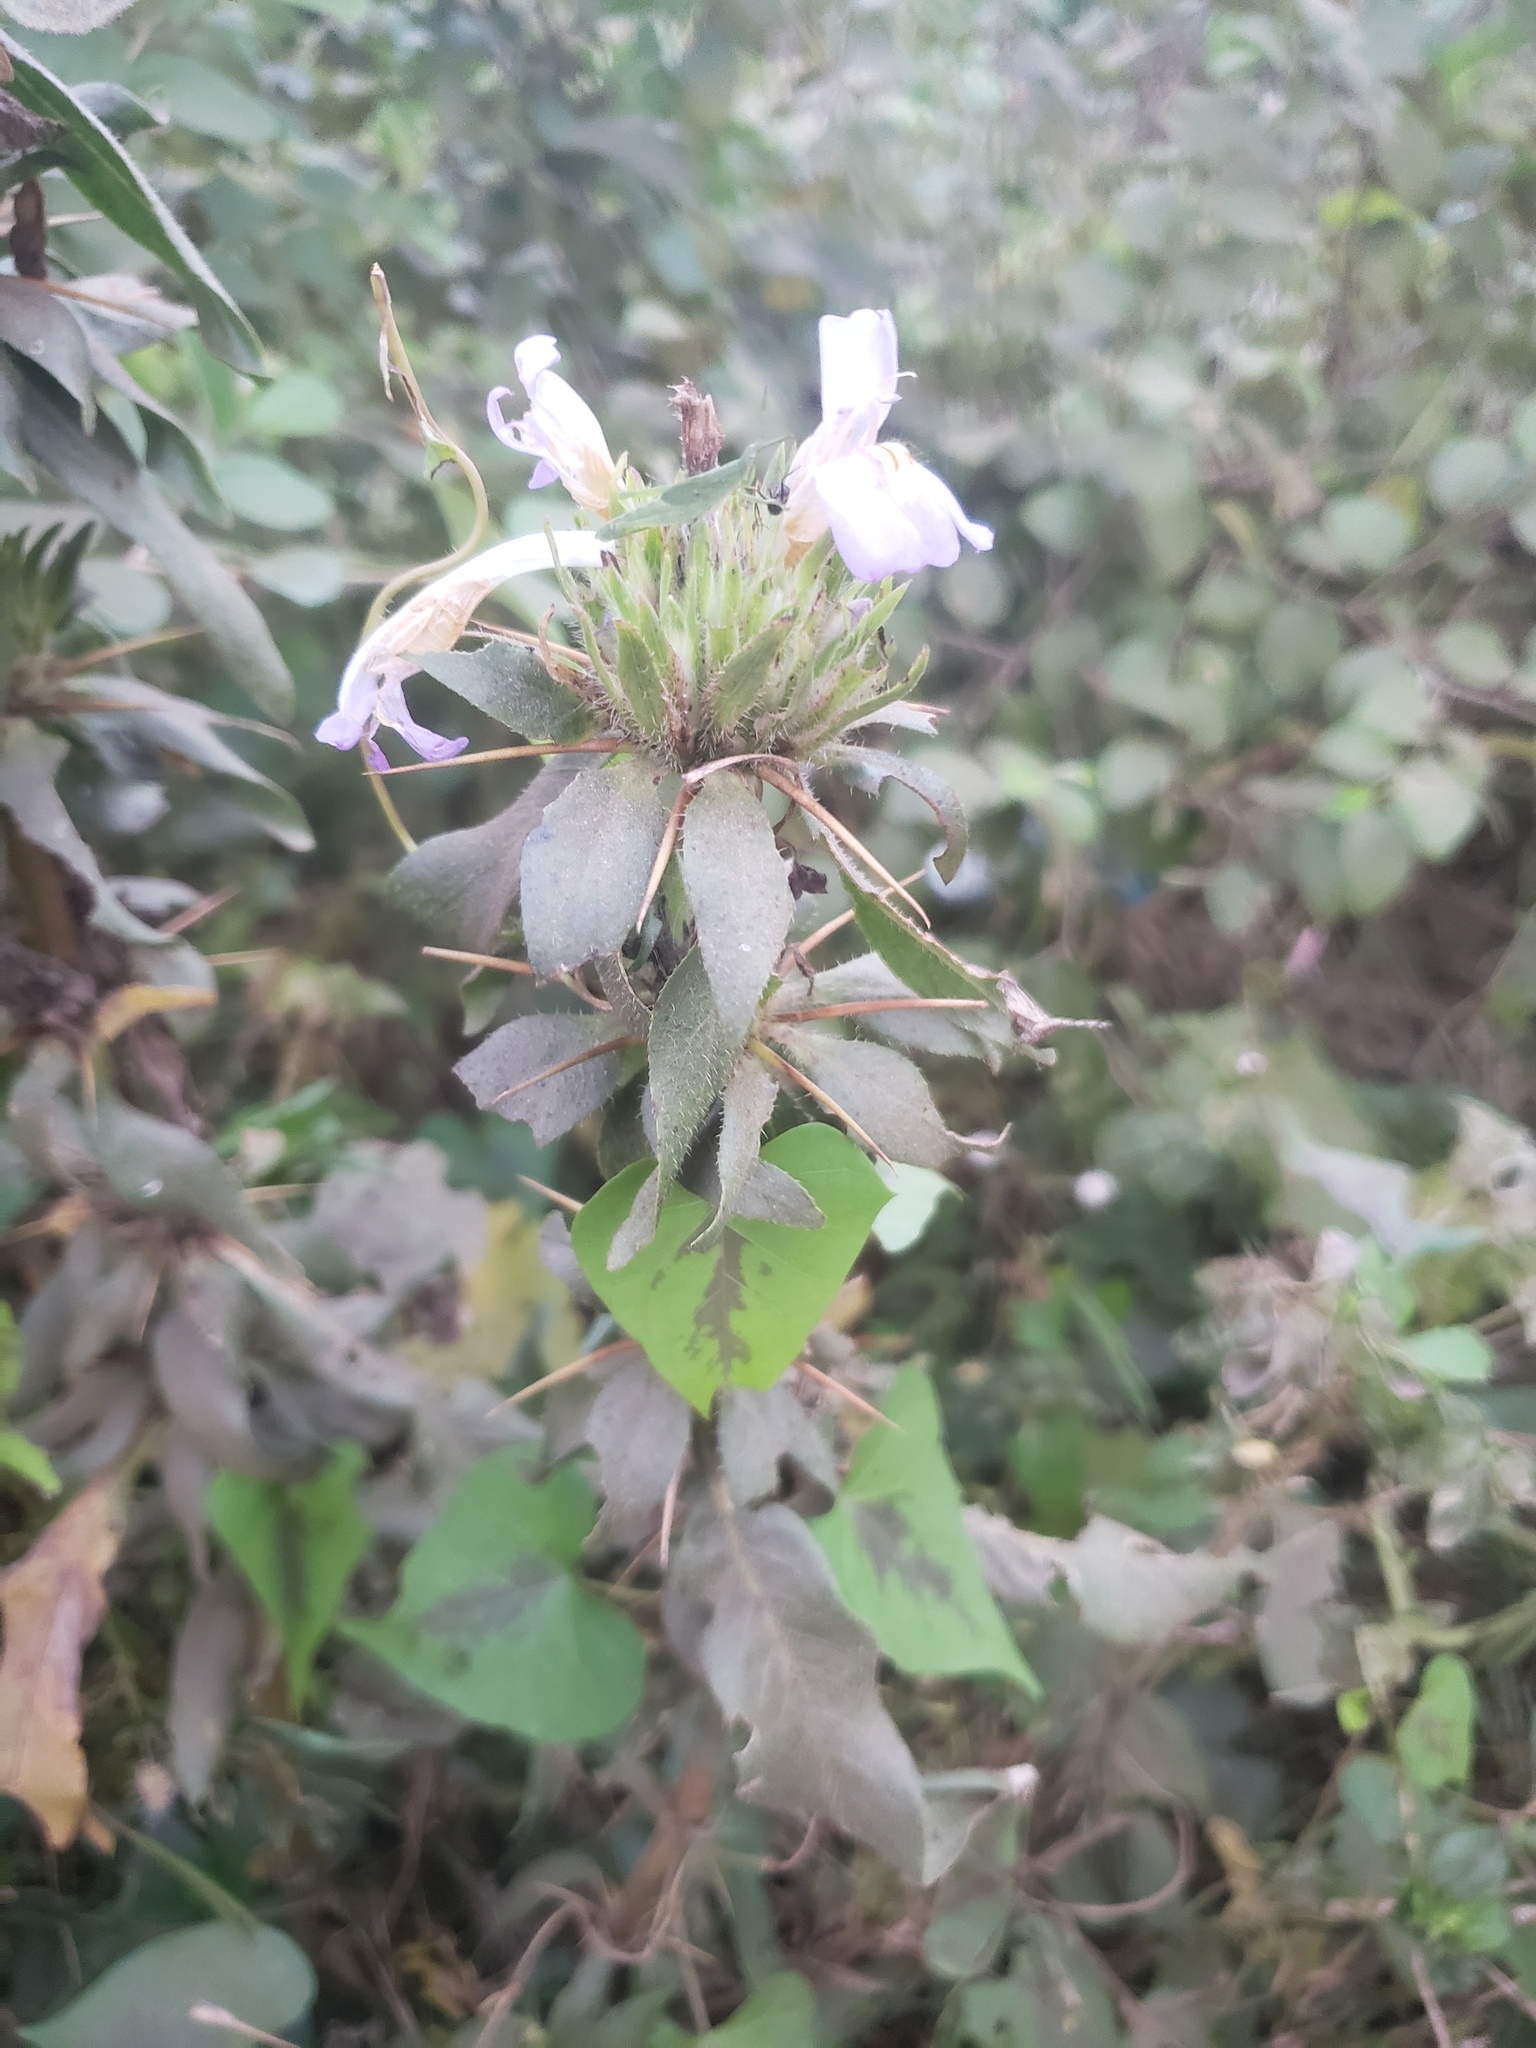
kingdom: Plantae
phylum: Tracheophyta
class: Magnoliopsida
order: Lamiales
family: Acanthaceae
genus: Hygrophila
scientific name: Hygrophila auriculata
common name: Hygrophila
